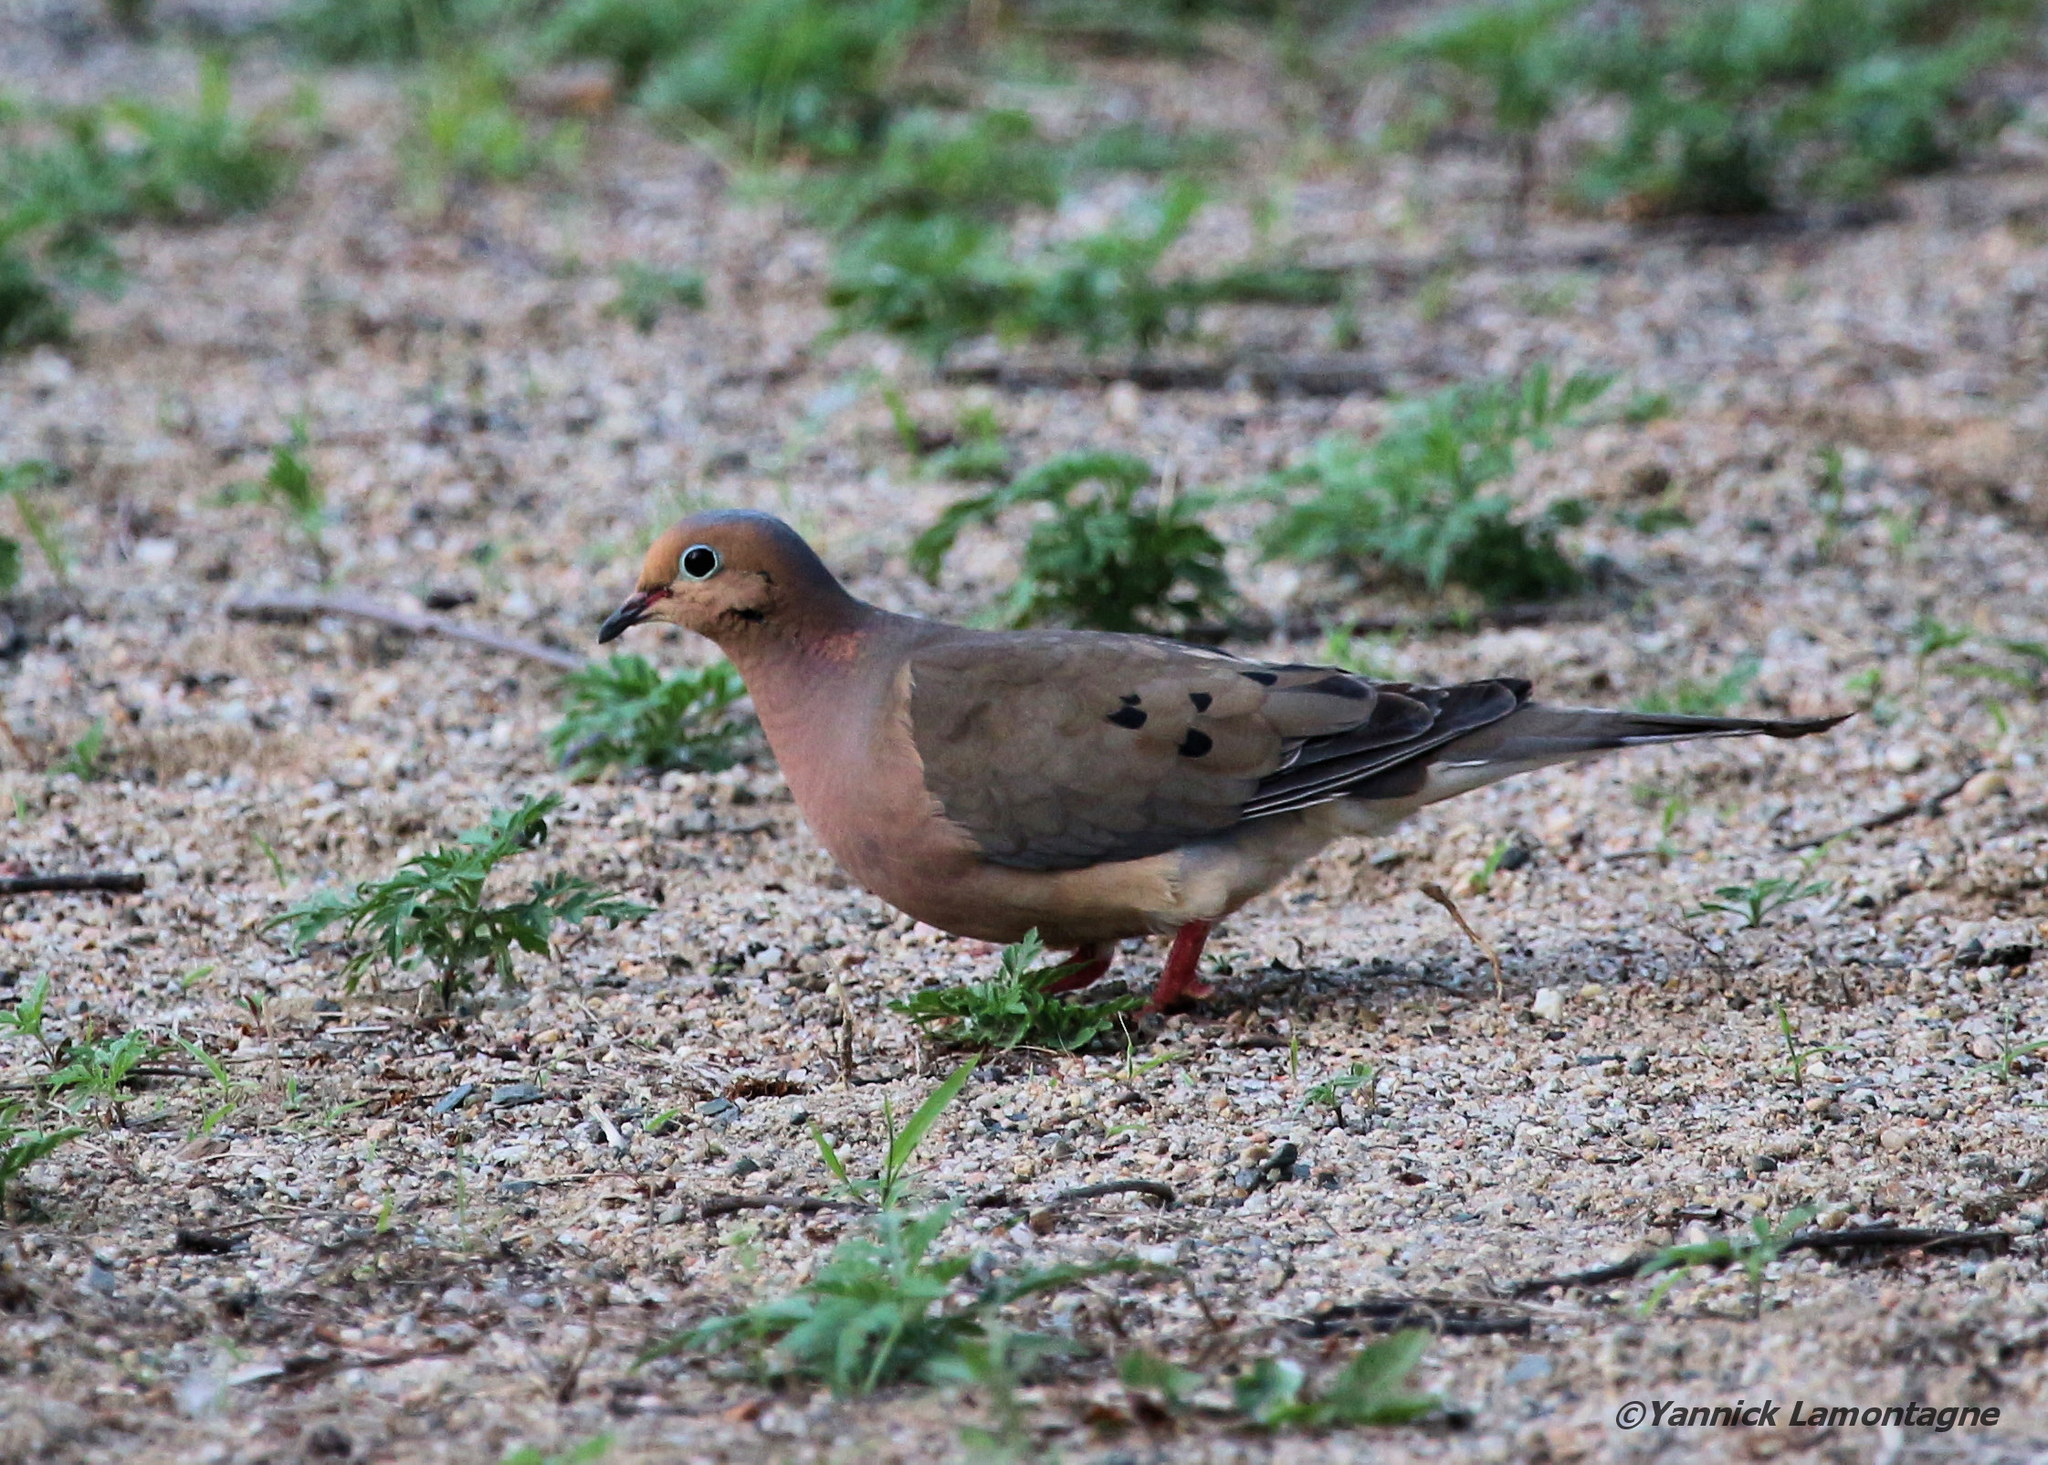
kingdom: Animalia
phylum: Chordata
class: Aves
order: Columbiformes
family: Columbidae
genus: Zenaida
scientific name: Zenaida macroura
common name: Mourning dove
